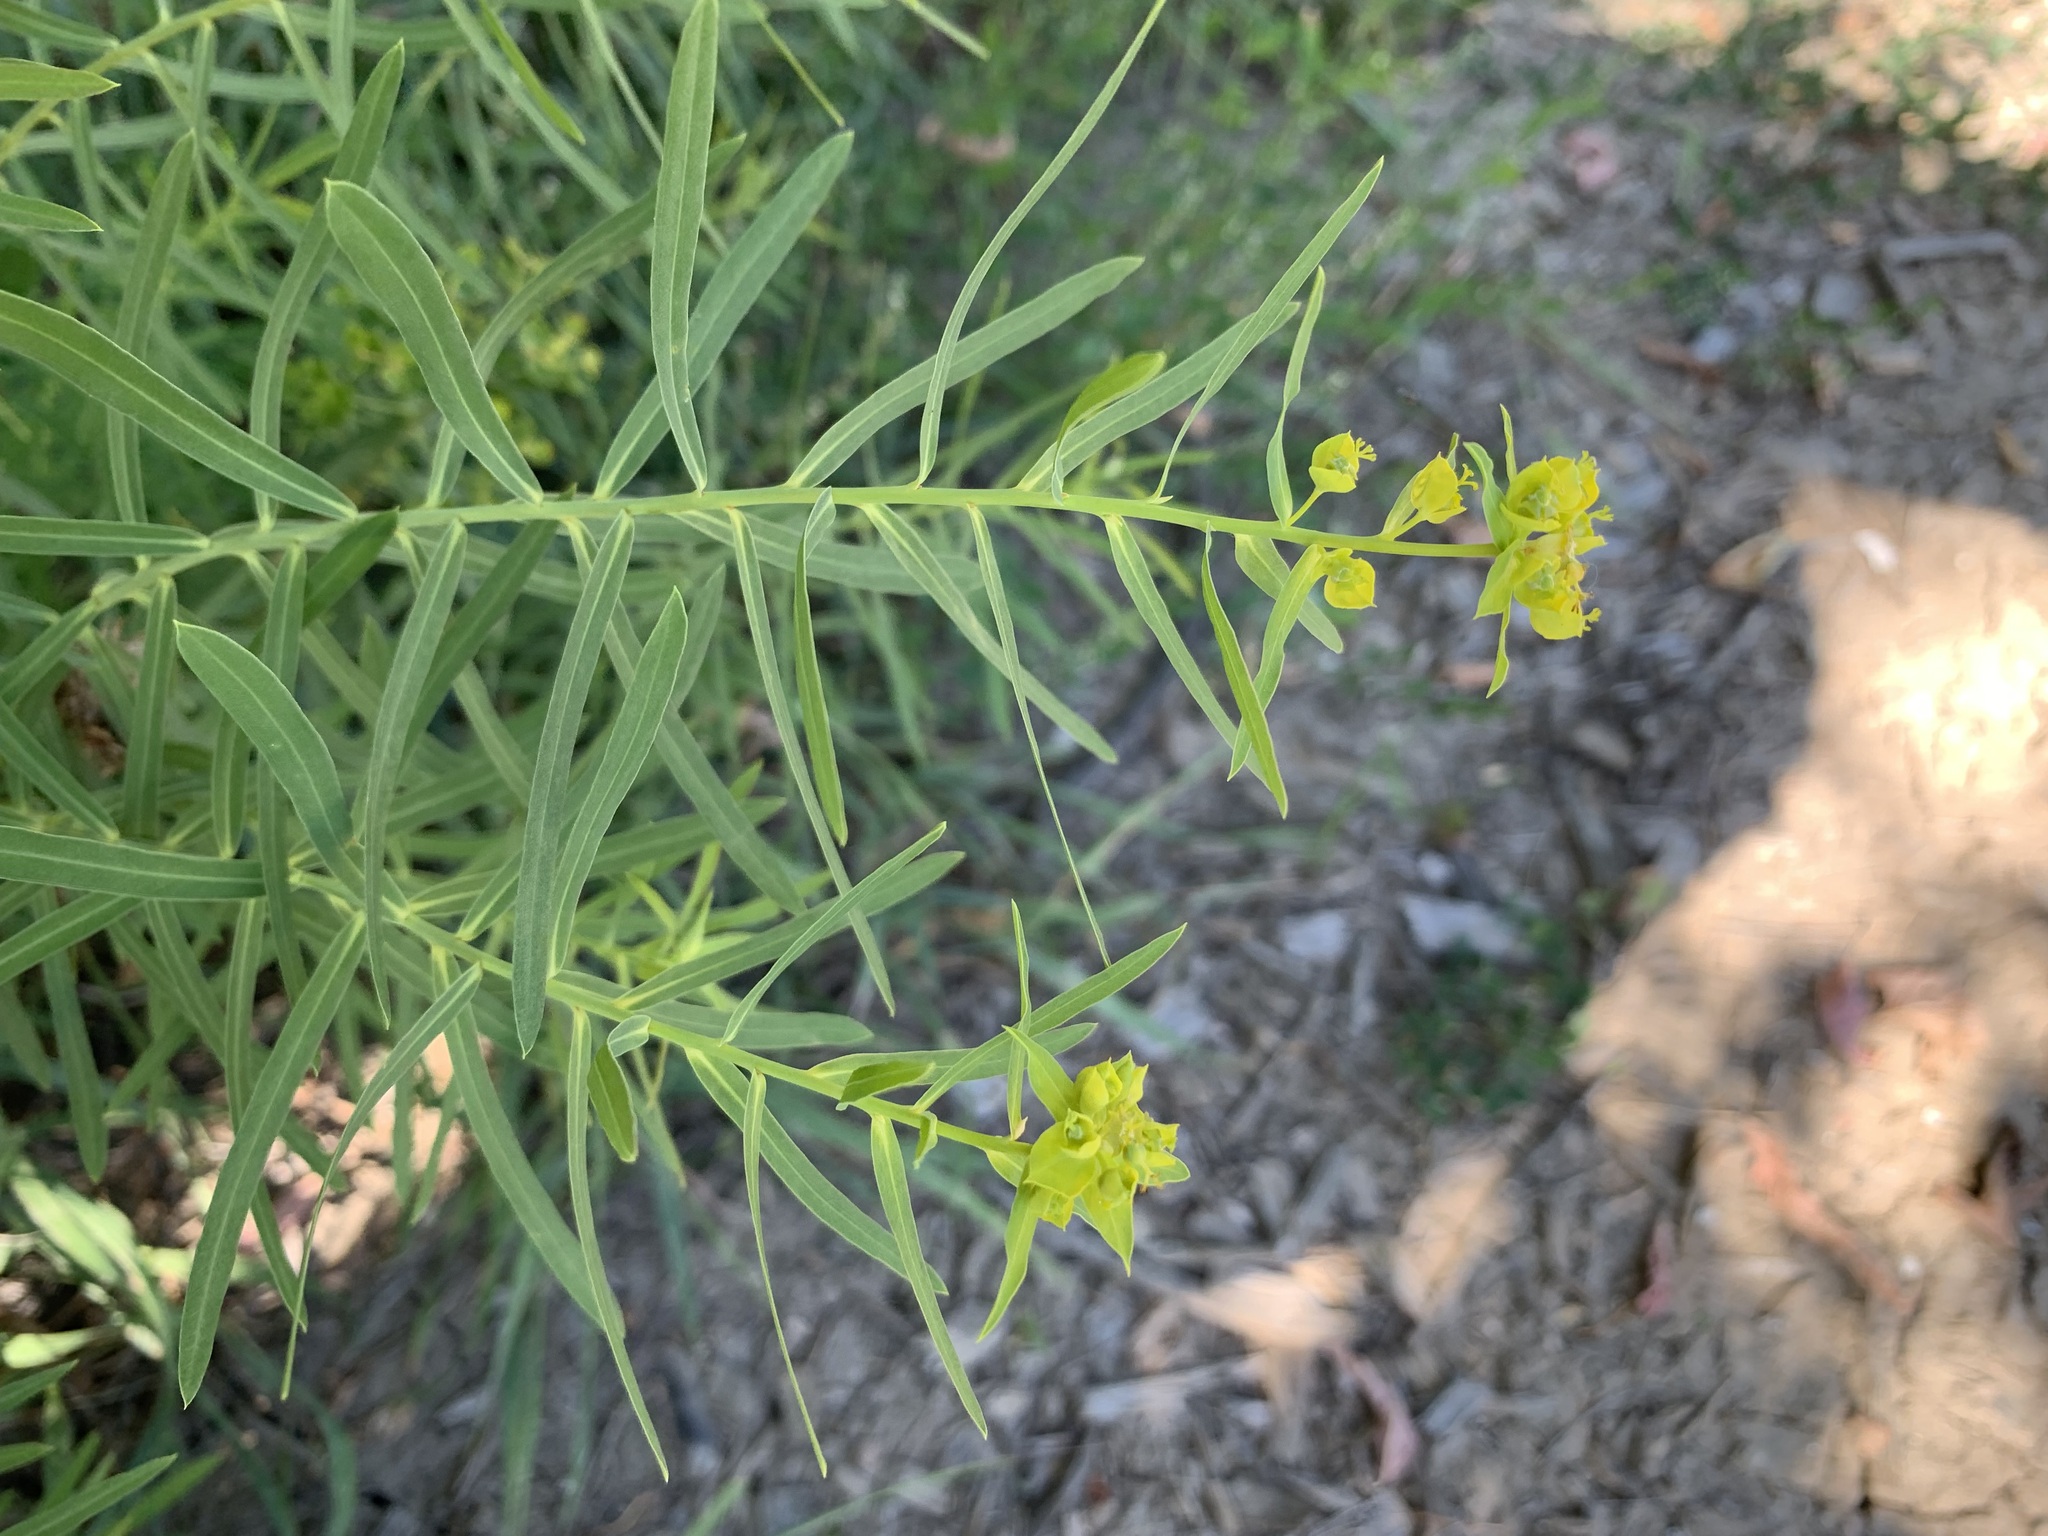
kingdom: Plantae
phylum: Tracheophyta
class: Magnoliopsida
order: Malpighiales
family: Euphorbiaceae
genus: Euphorbia
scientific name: Euphorbia virgata
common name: Leafy spurge
